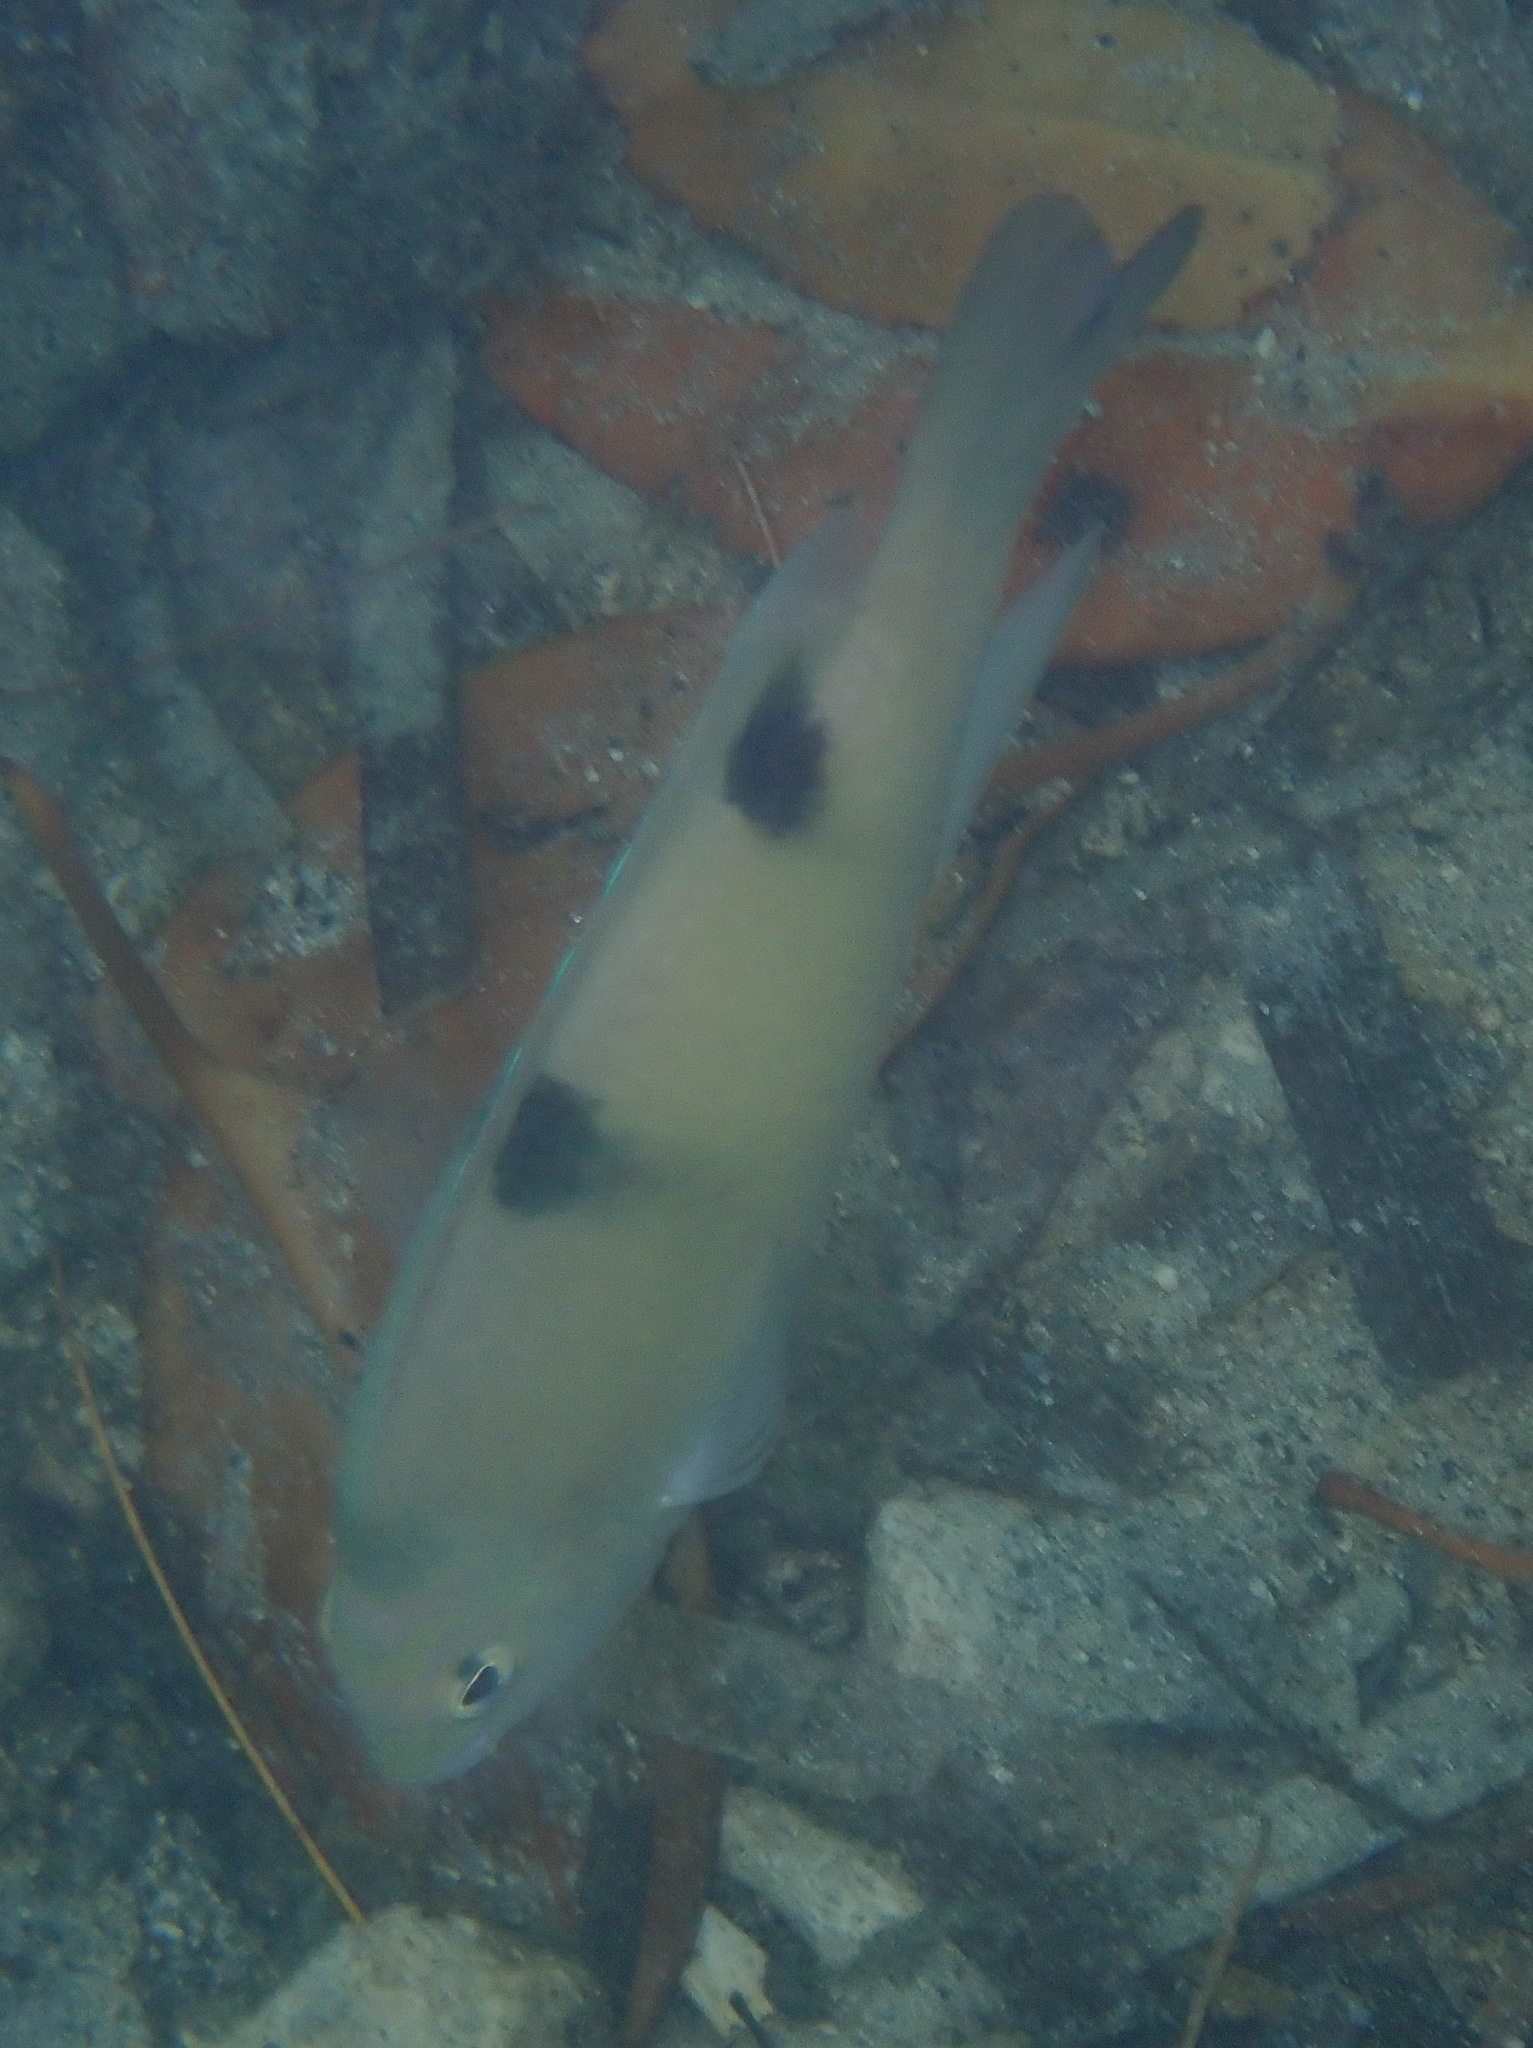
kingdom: Animalia
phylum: Chordata
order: Perciformes
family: Pomacentridae
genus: Dischistodus
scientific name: Dischistodus perspicillatus
